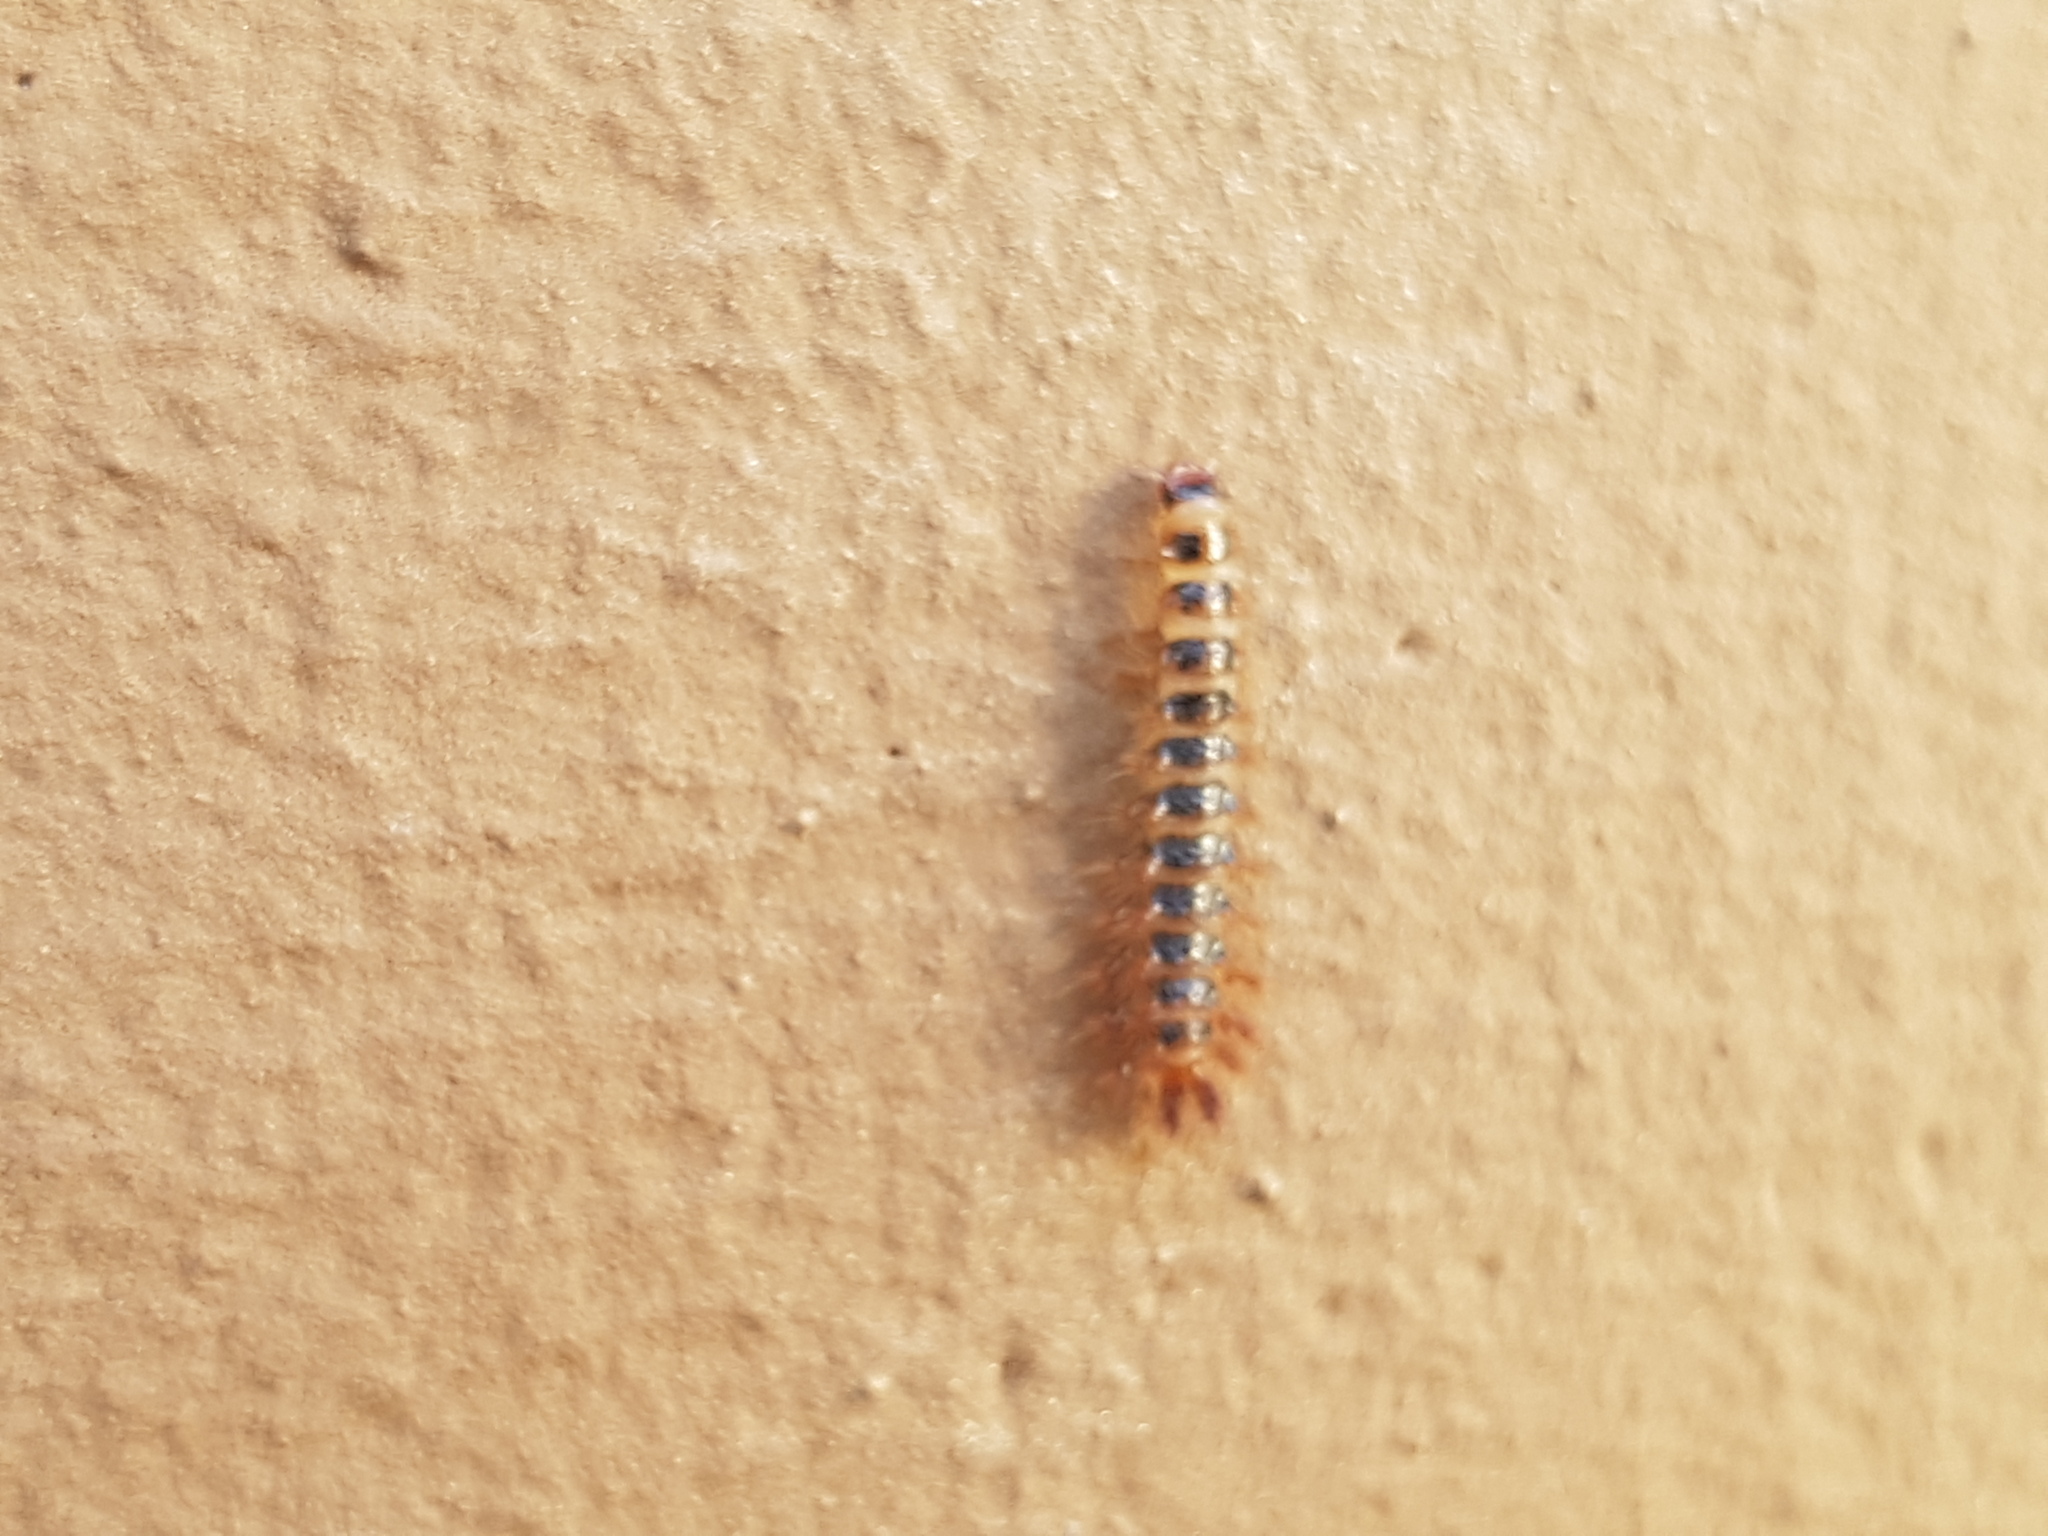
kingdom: Animalia
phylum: Arthropoda
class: Insecta
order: Coleoptera
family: Drilidae
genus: Drilus
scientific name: Drilus concolor
